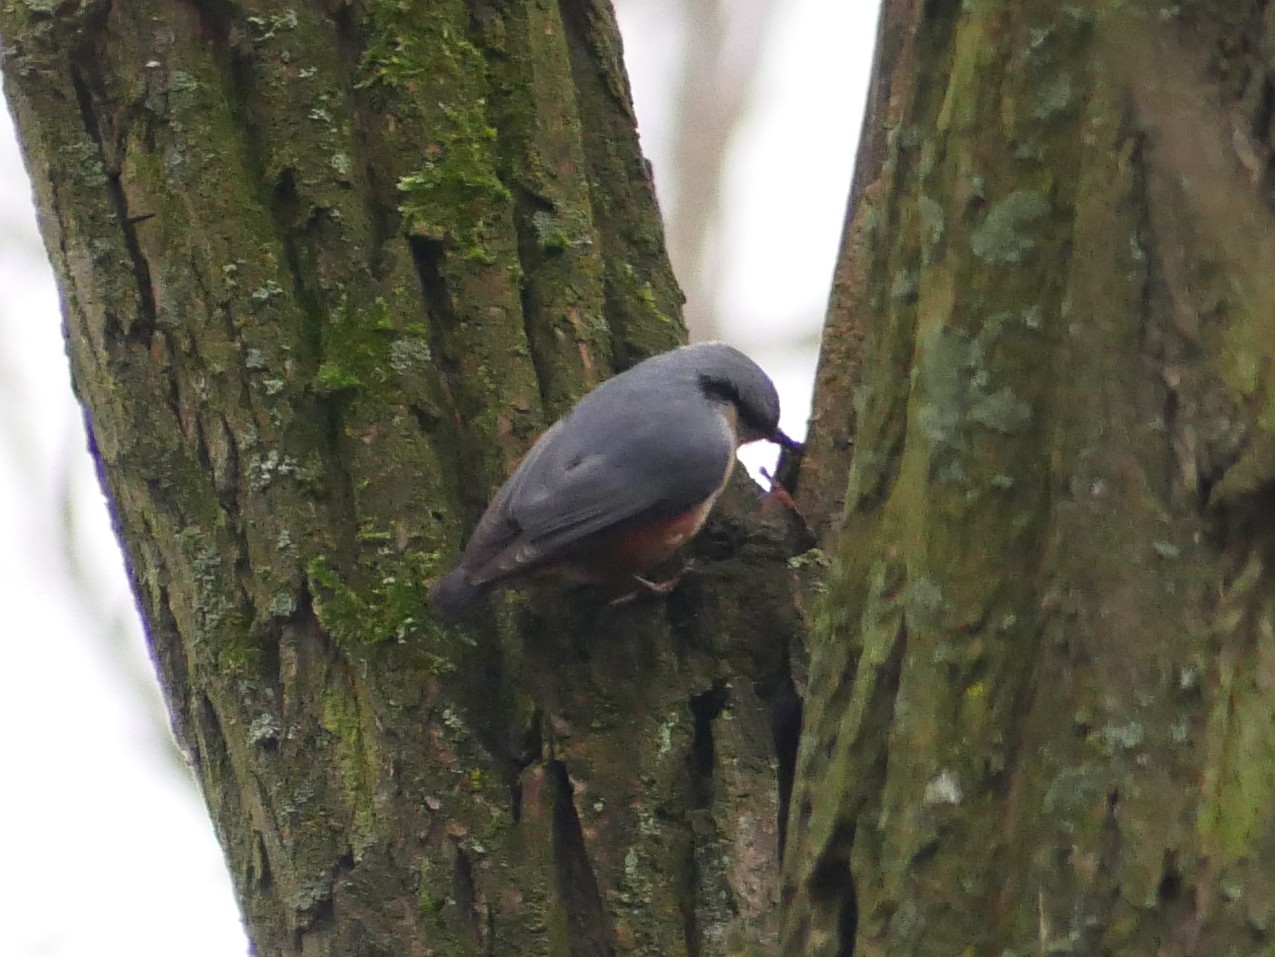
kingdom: Animalia
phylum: Chordata
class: Aves
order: Passeriformes
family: Sittidae
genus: Sitta
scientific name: Sitta europaea
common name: Eurasian nuthatch
